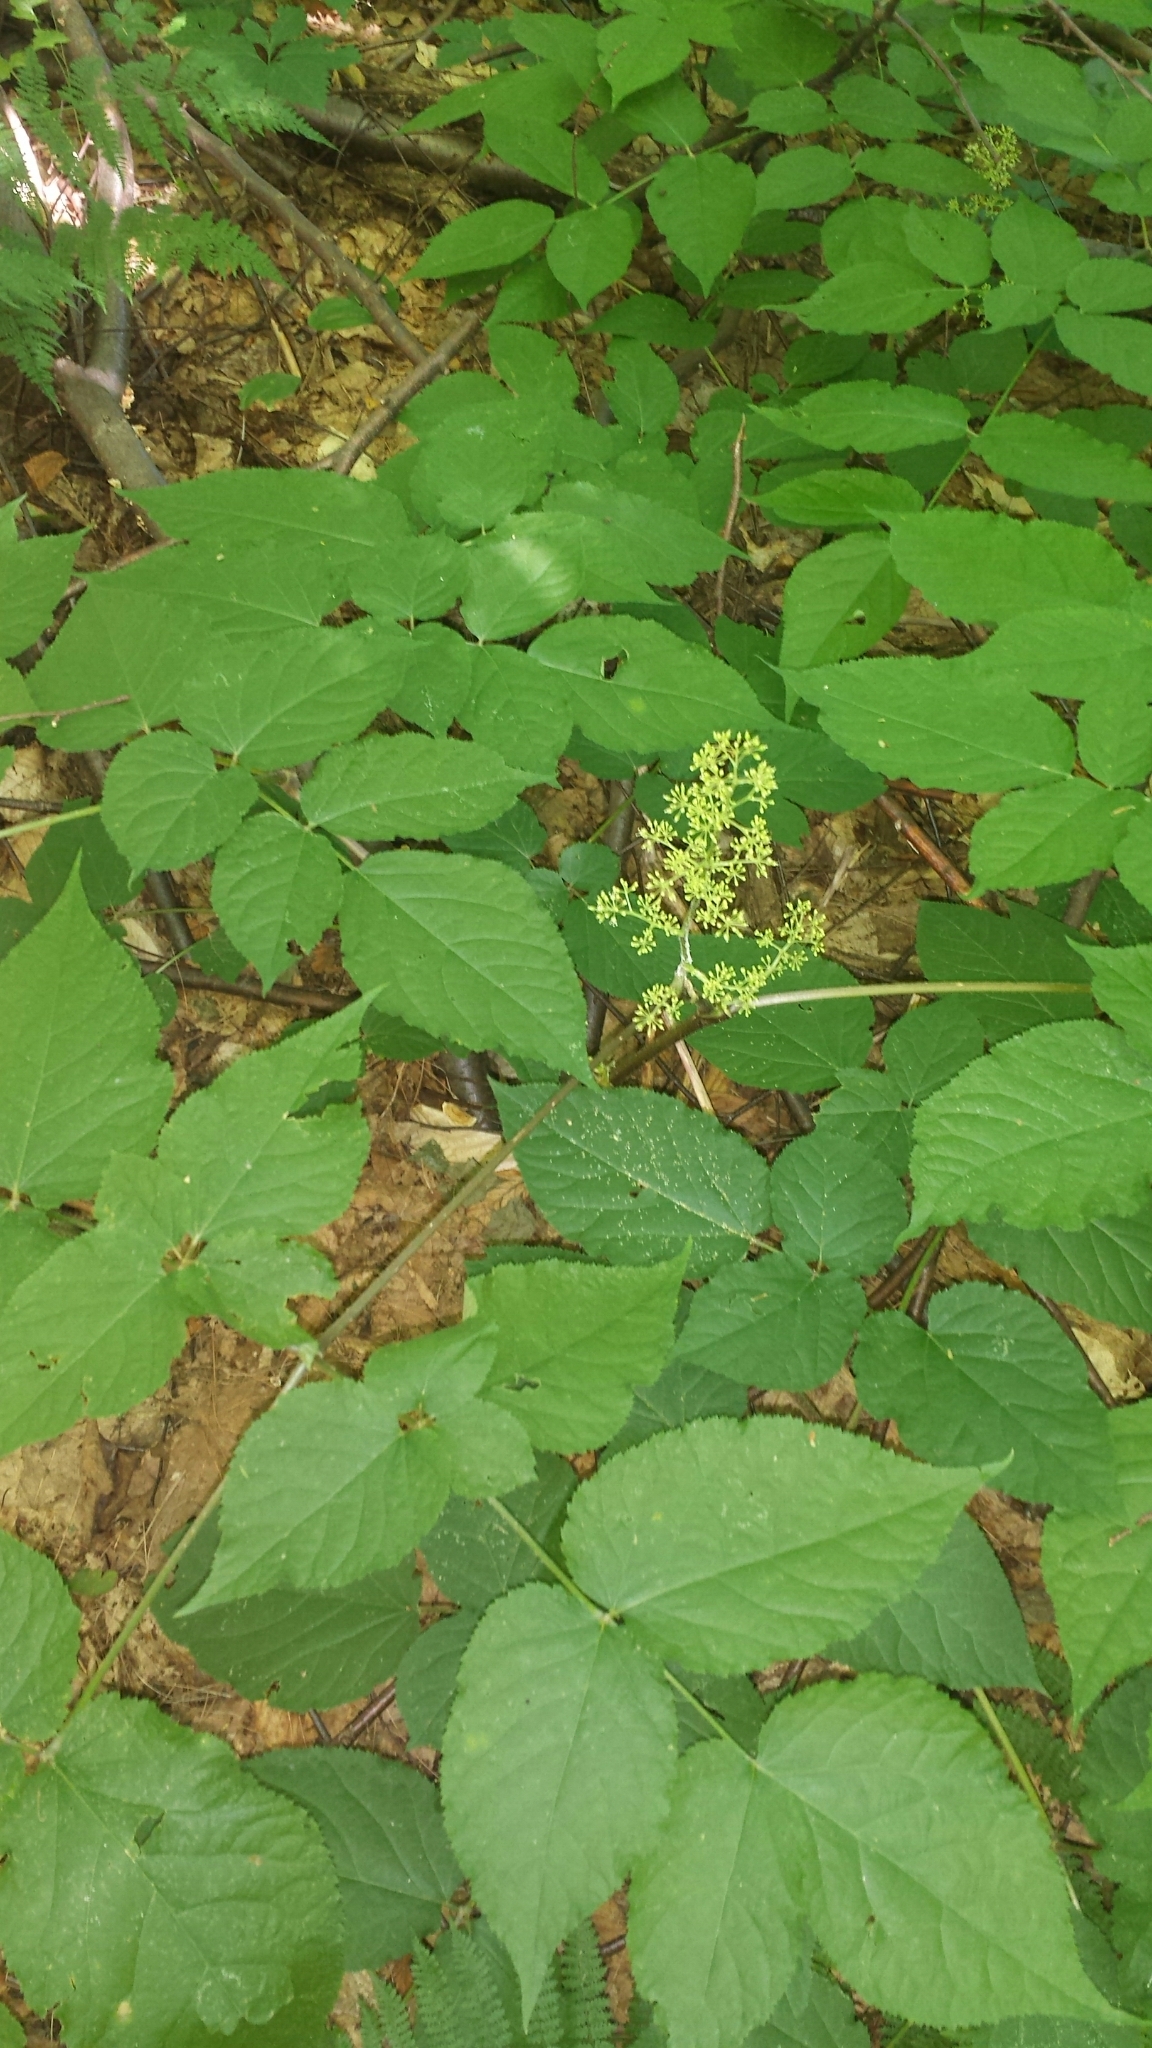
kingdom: Plantae
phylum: Tracheophyta
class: Magnoliopsida
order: Apiales
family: Araliaceae
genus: Aralia
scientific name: Aralia racemosa
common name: American-spikenard
